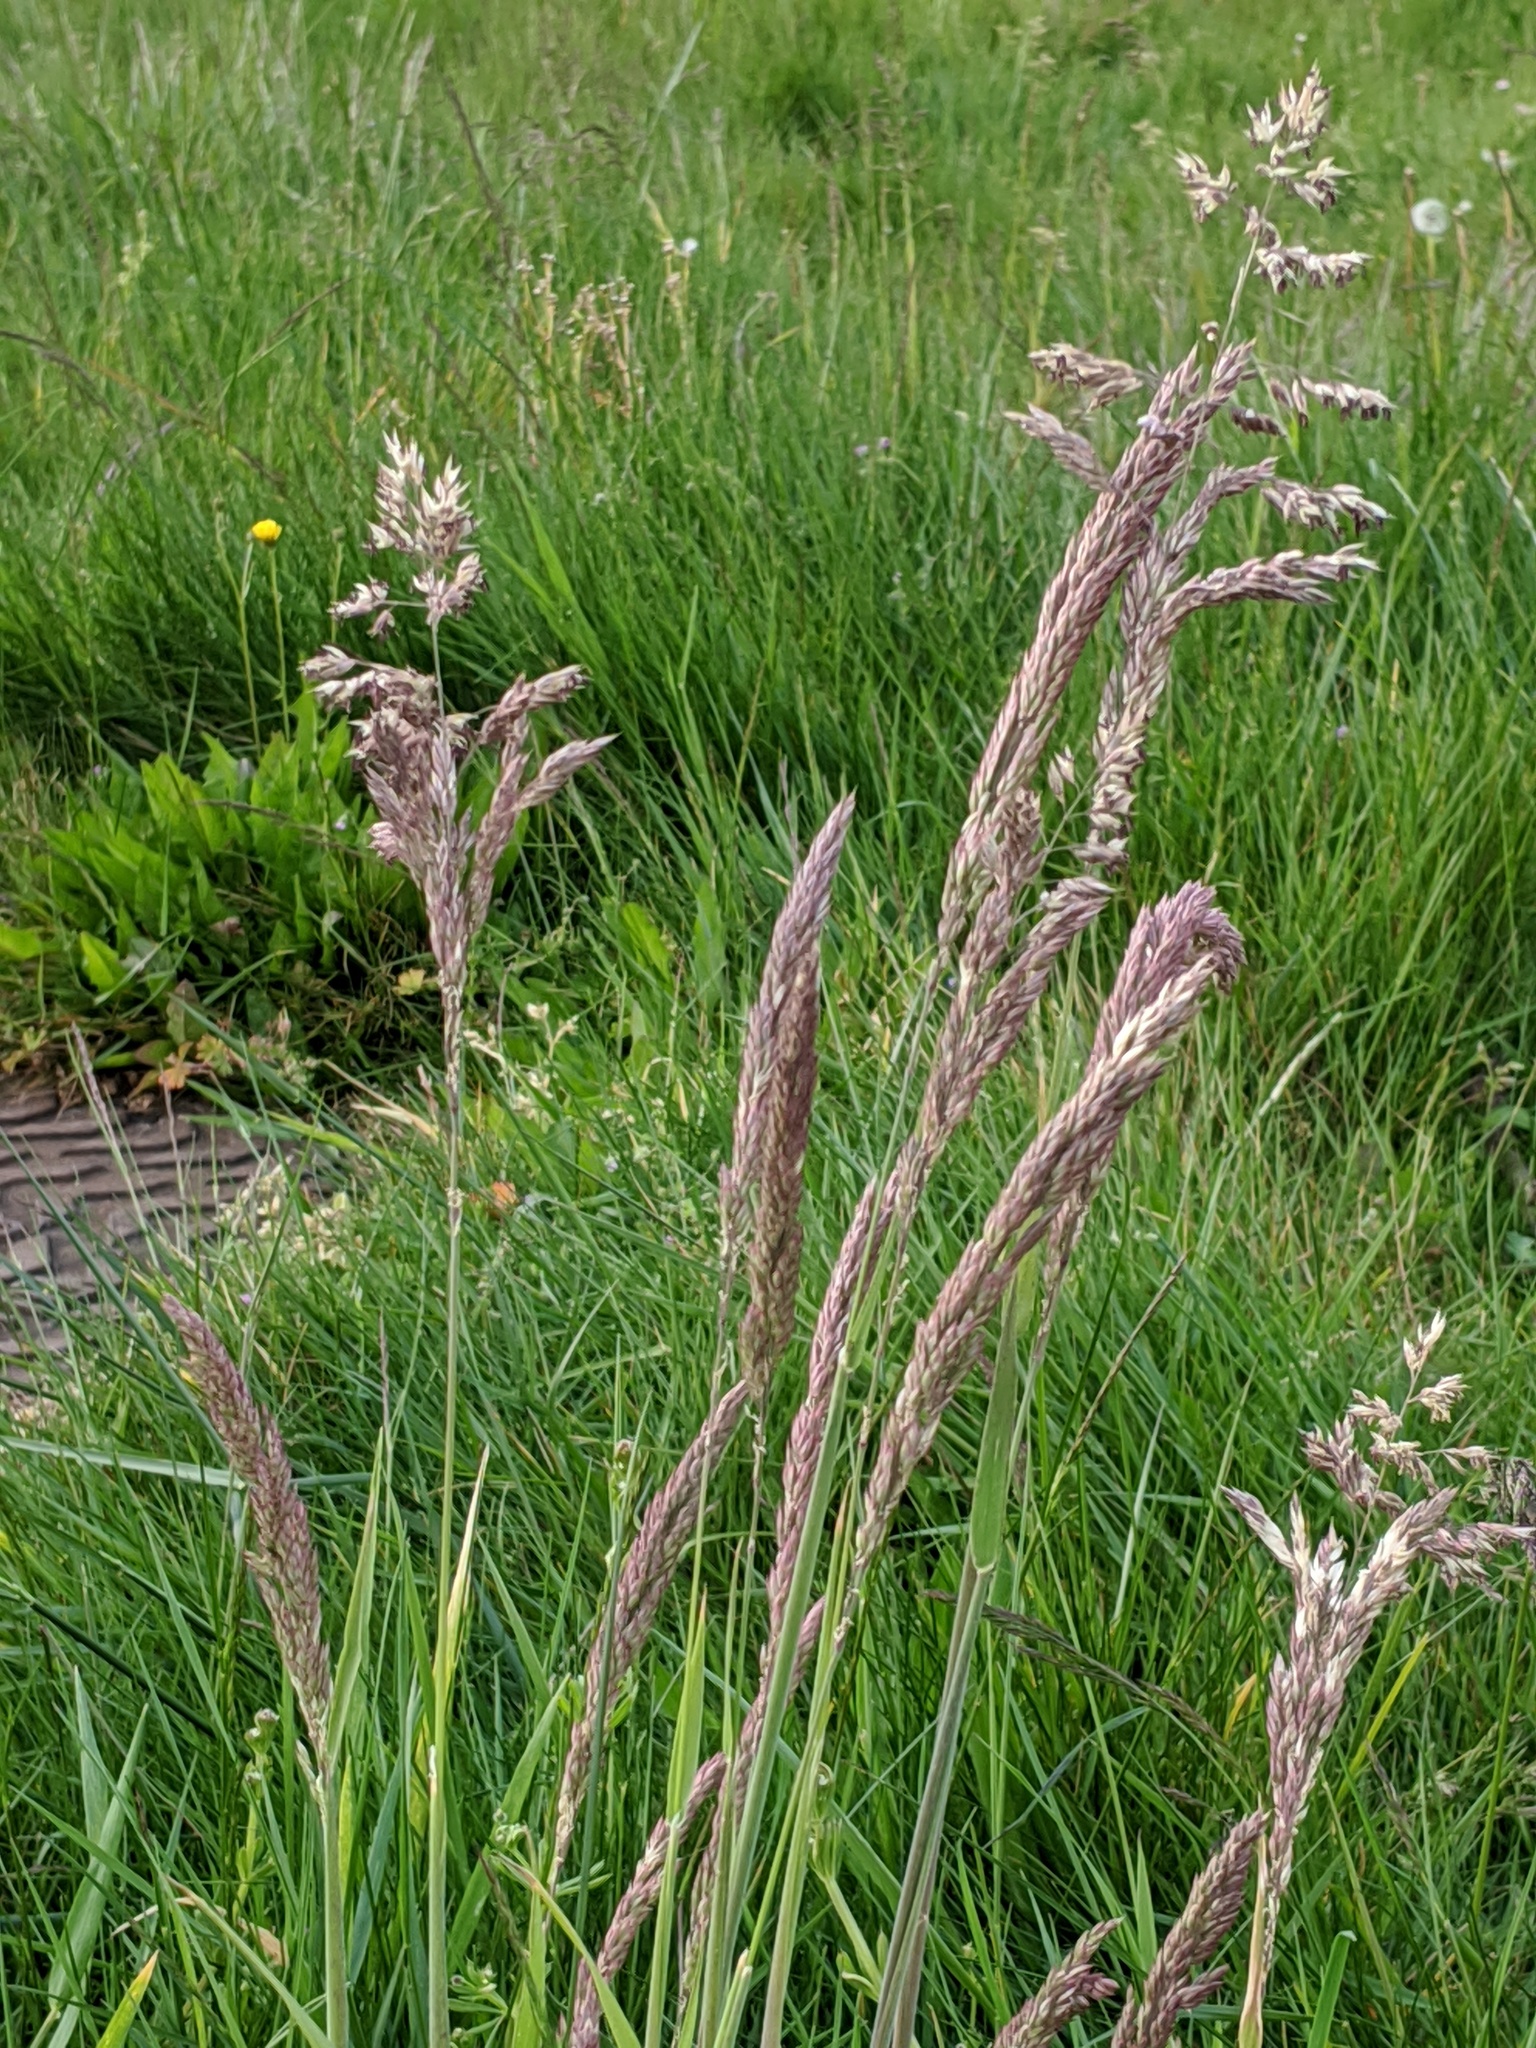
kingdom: Plantae
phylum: Tracheophyta
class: Liliopsida
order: Poales
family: Poaceae
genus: Holcus
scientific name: Holcus lanatus
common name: Yorkshire-fog
